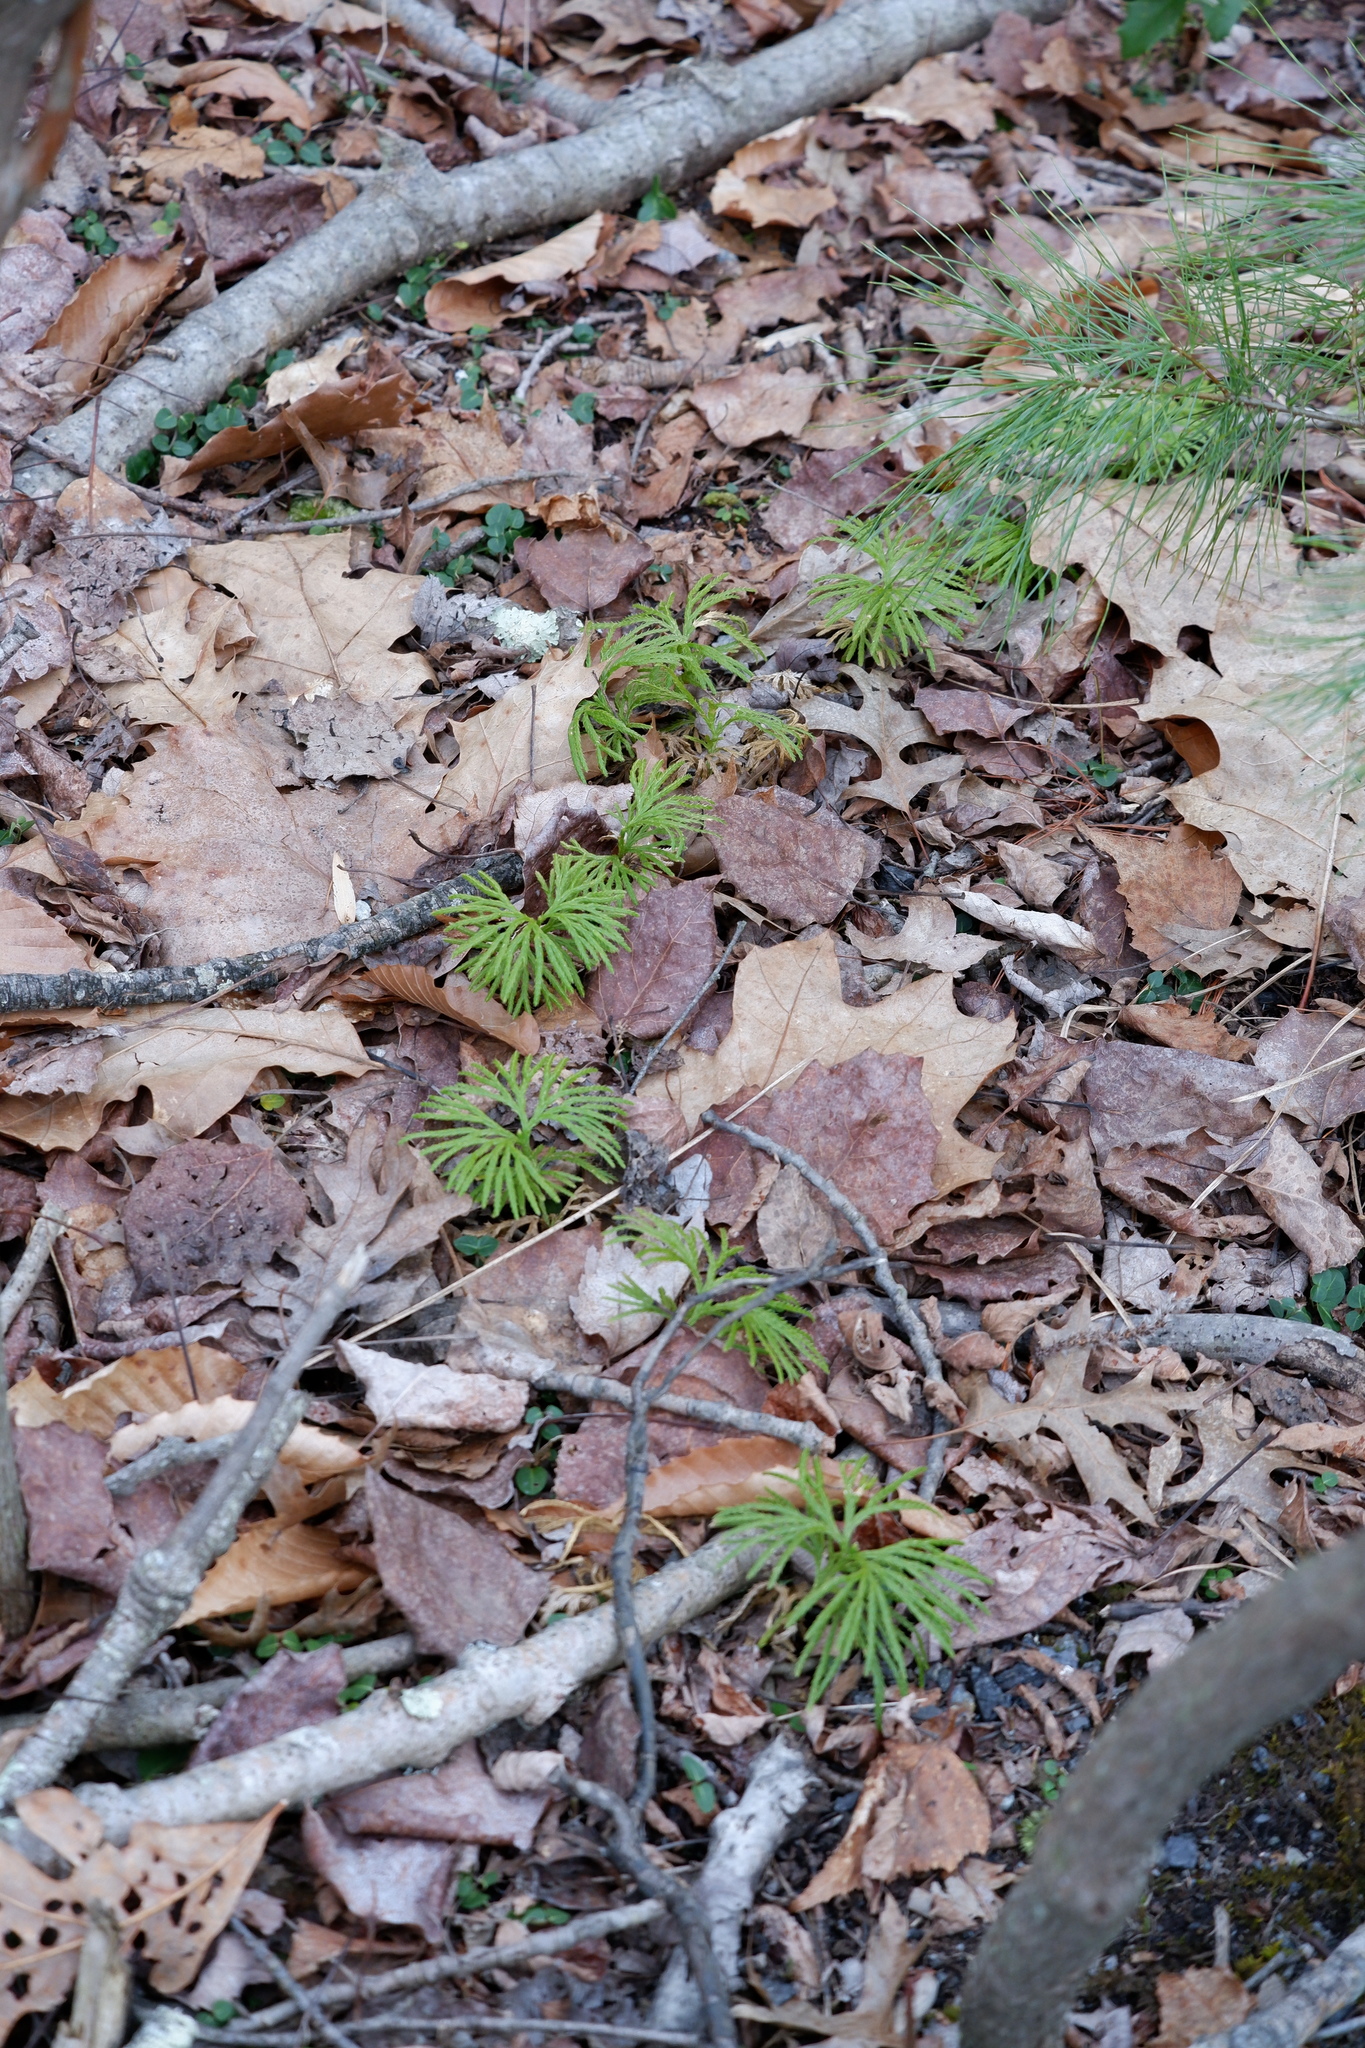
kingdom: Plantae
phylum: Tracheophyta
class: Lycopodiopsida
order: Lycopodiales
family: Lycopodiaceae
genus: Diphasiastrum
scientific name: Diphasiastrum digitatum
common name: Southern running-pine
